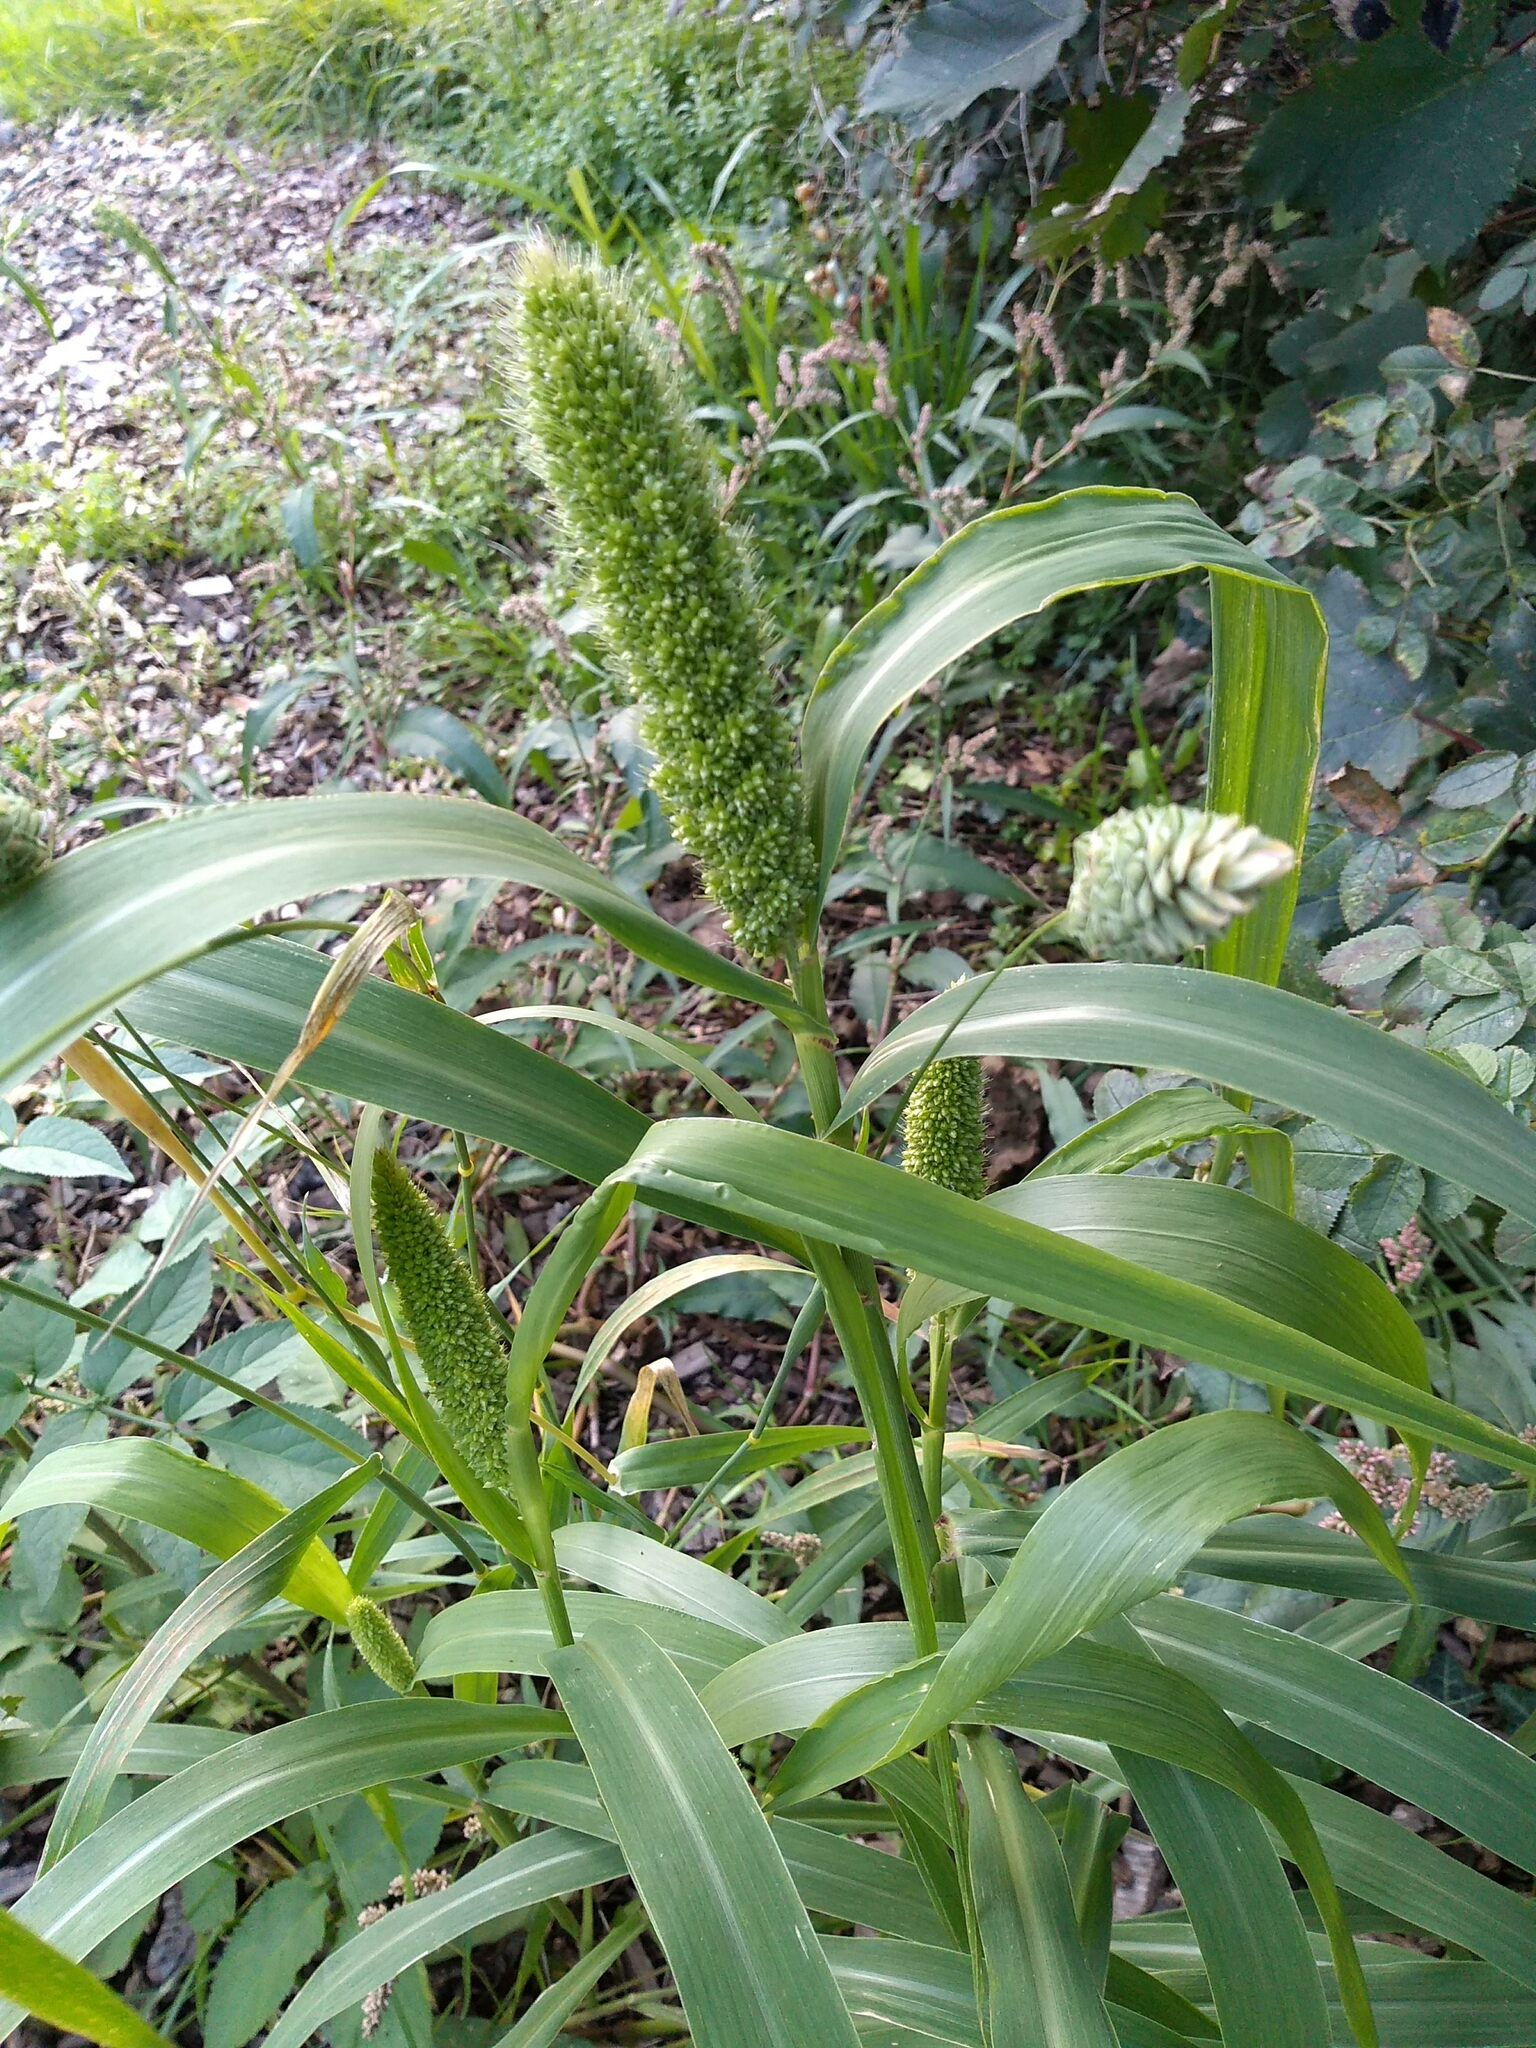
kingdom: Plantae
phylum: Tracheophyta
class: Liliopsida
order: Poales
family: Poaceae
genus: Setaria
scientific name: Setaria italica
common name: Foxtail bristle-grass
